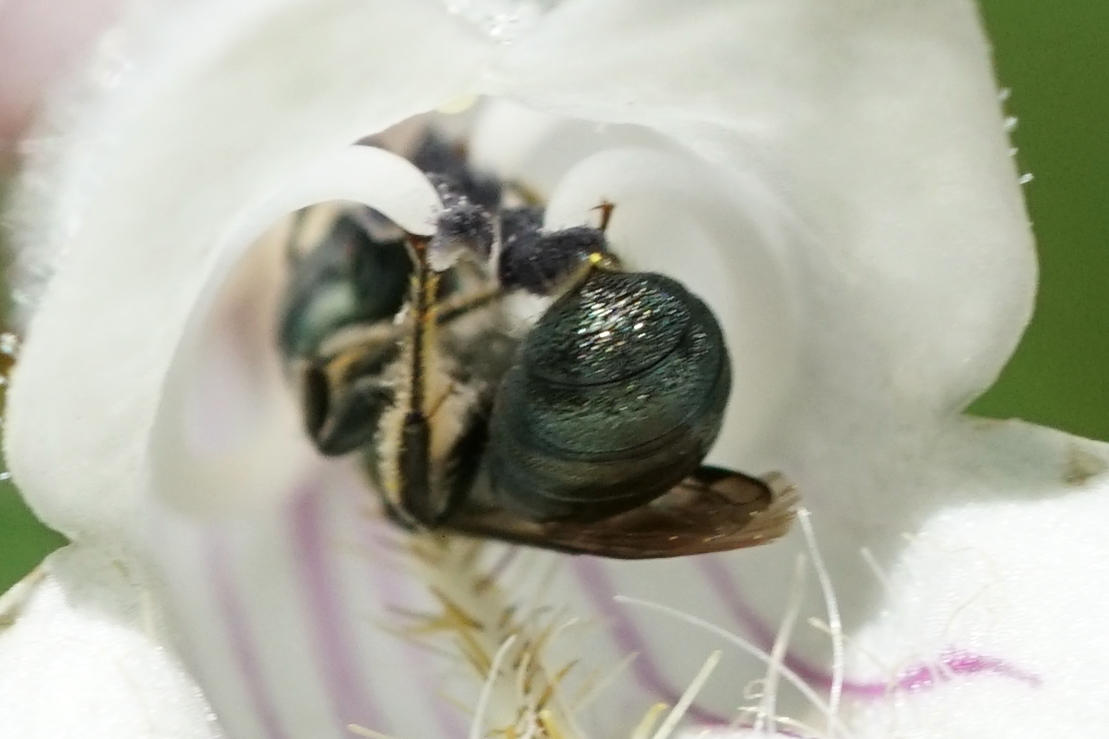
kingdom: Animalia
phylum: Arthropoda
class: Insecta
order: Hymenoptera
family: Apidae
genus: Zadontomerus
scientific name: Zadontomerus
